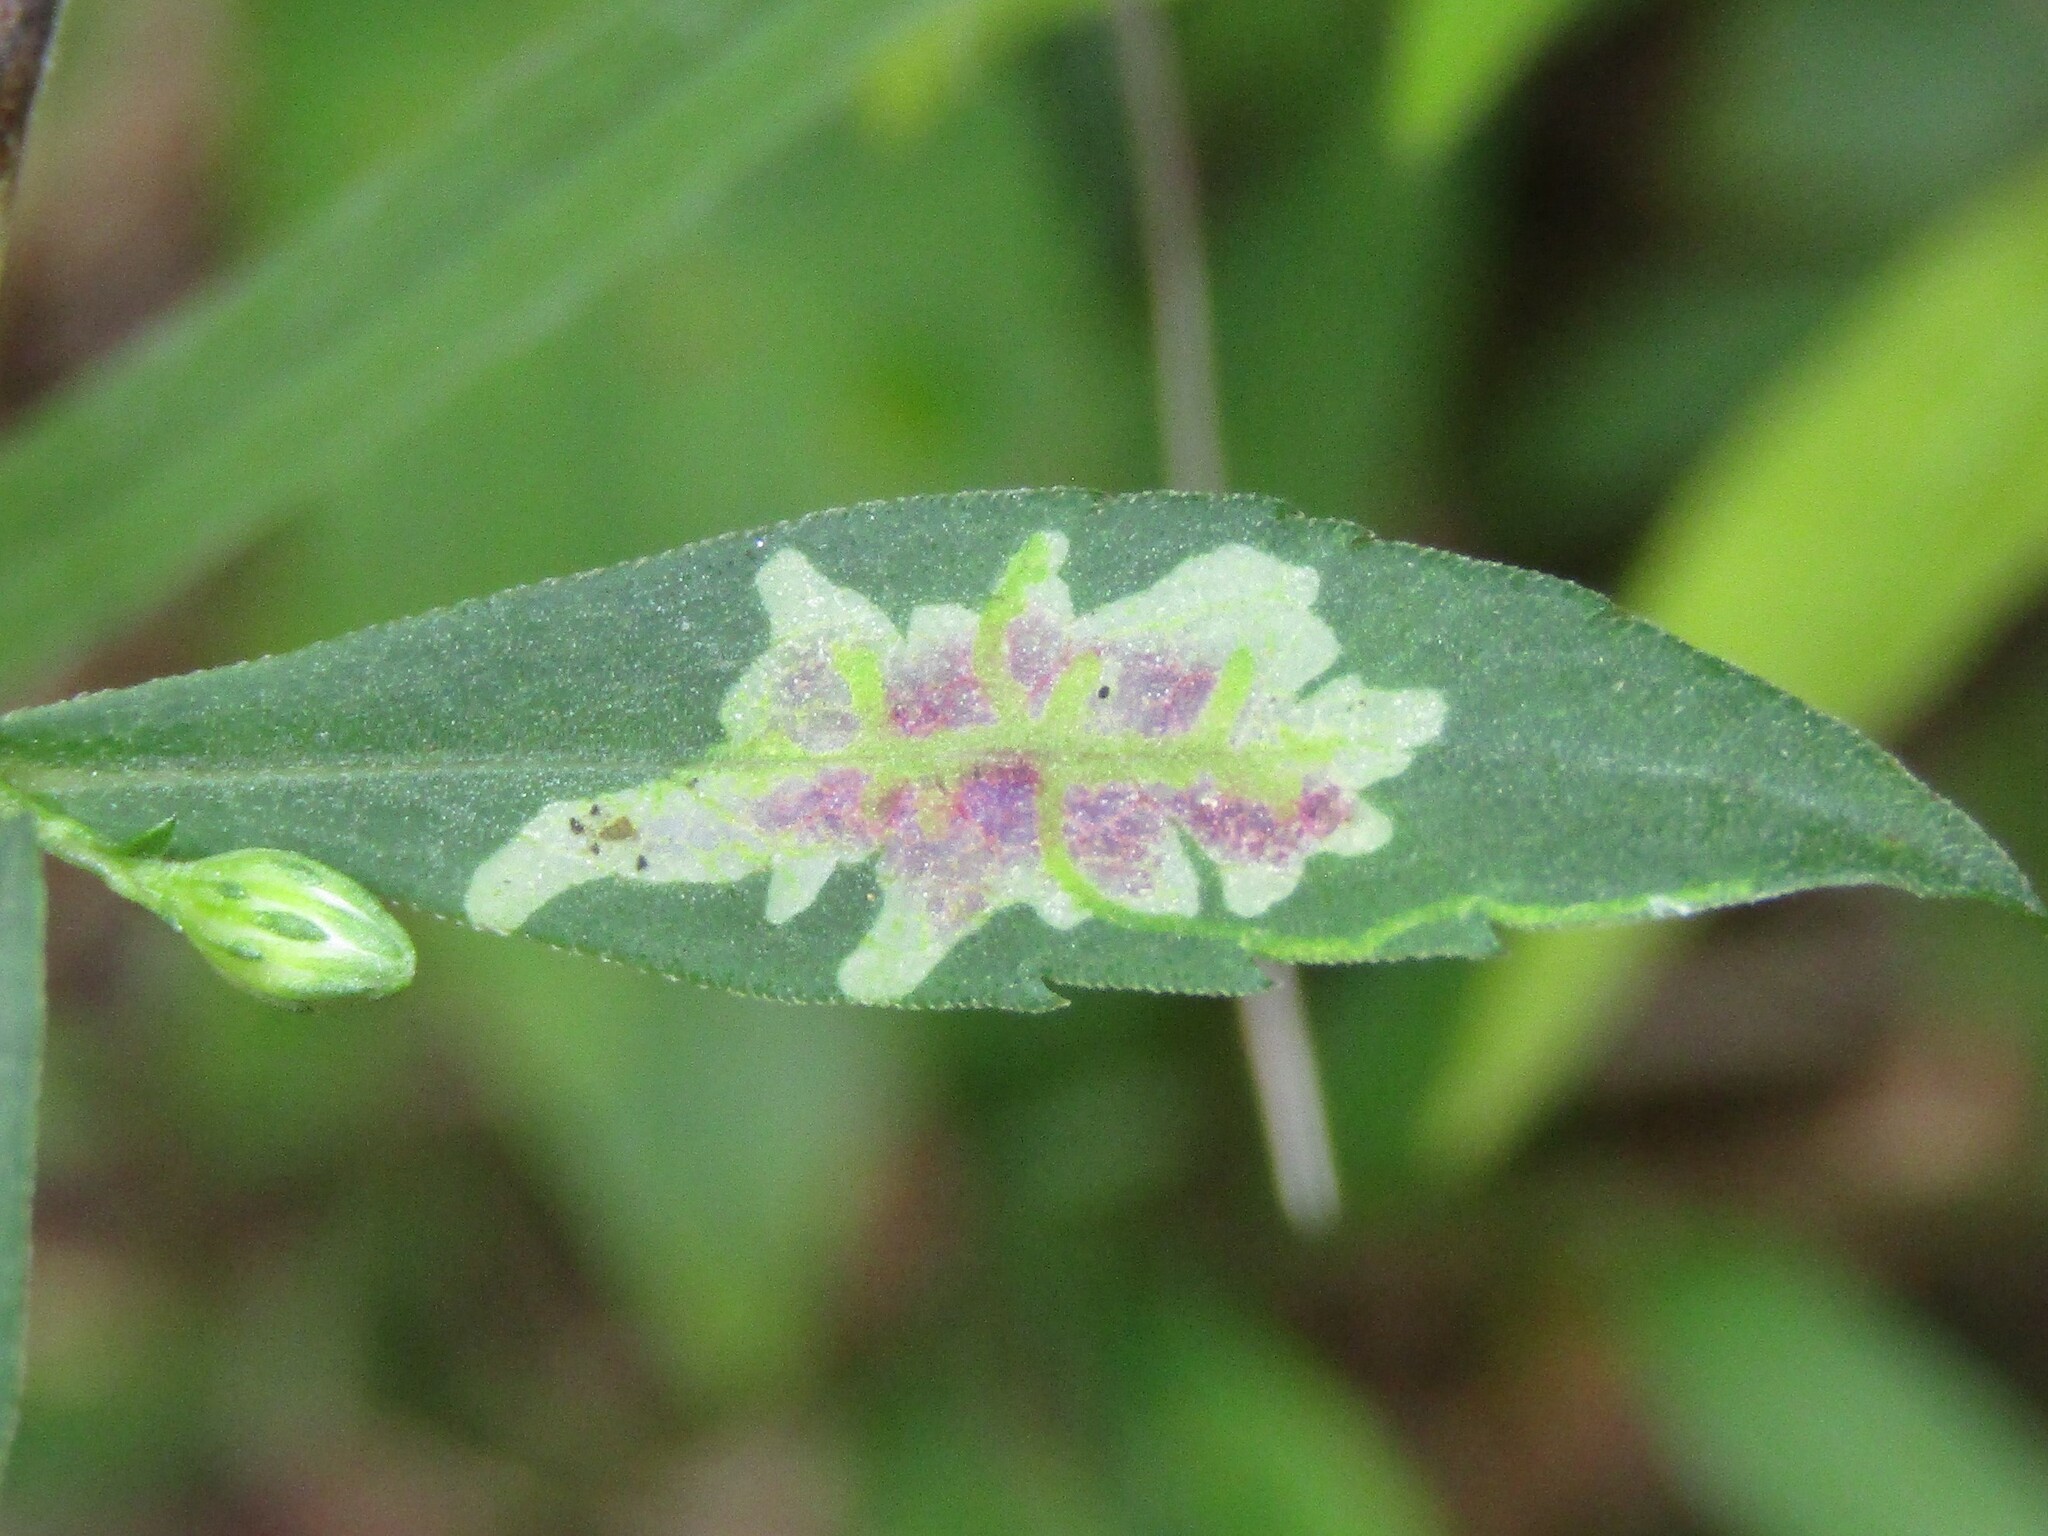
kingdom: Animalia
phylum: Arthropoda
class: Insecta
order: Diptera
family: Agromyzidae
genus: Calycomyza
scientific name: Calycomyza promissa
